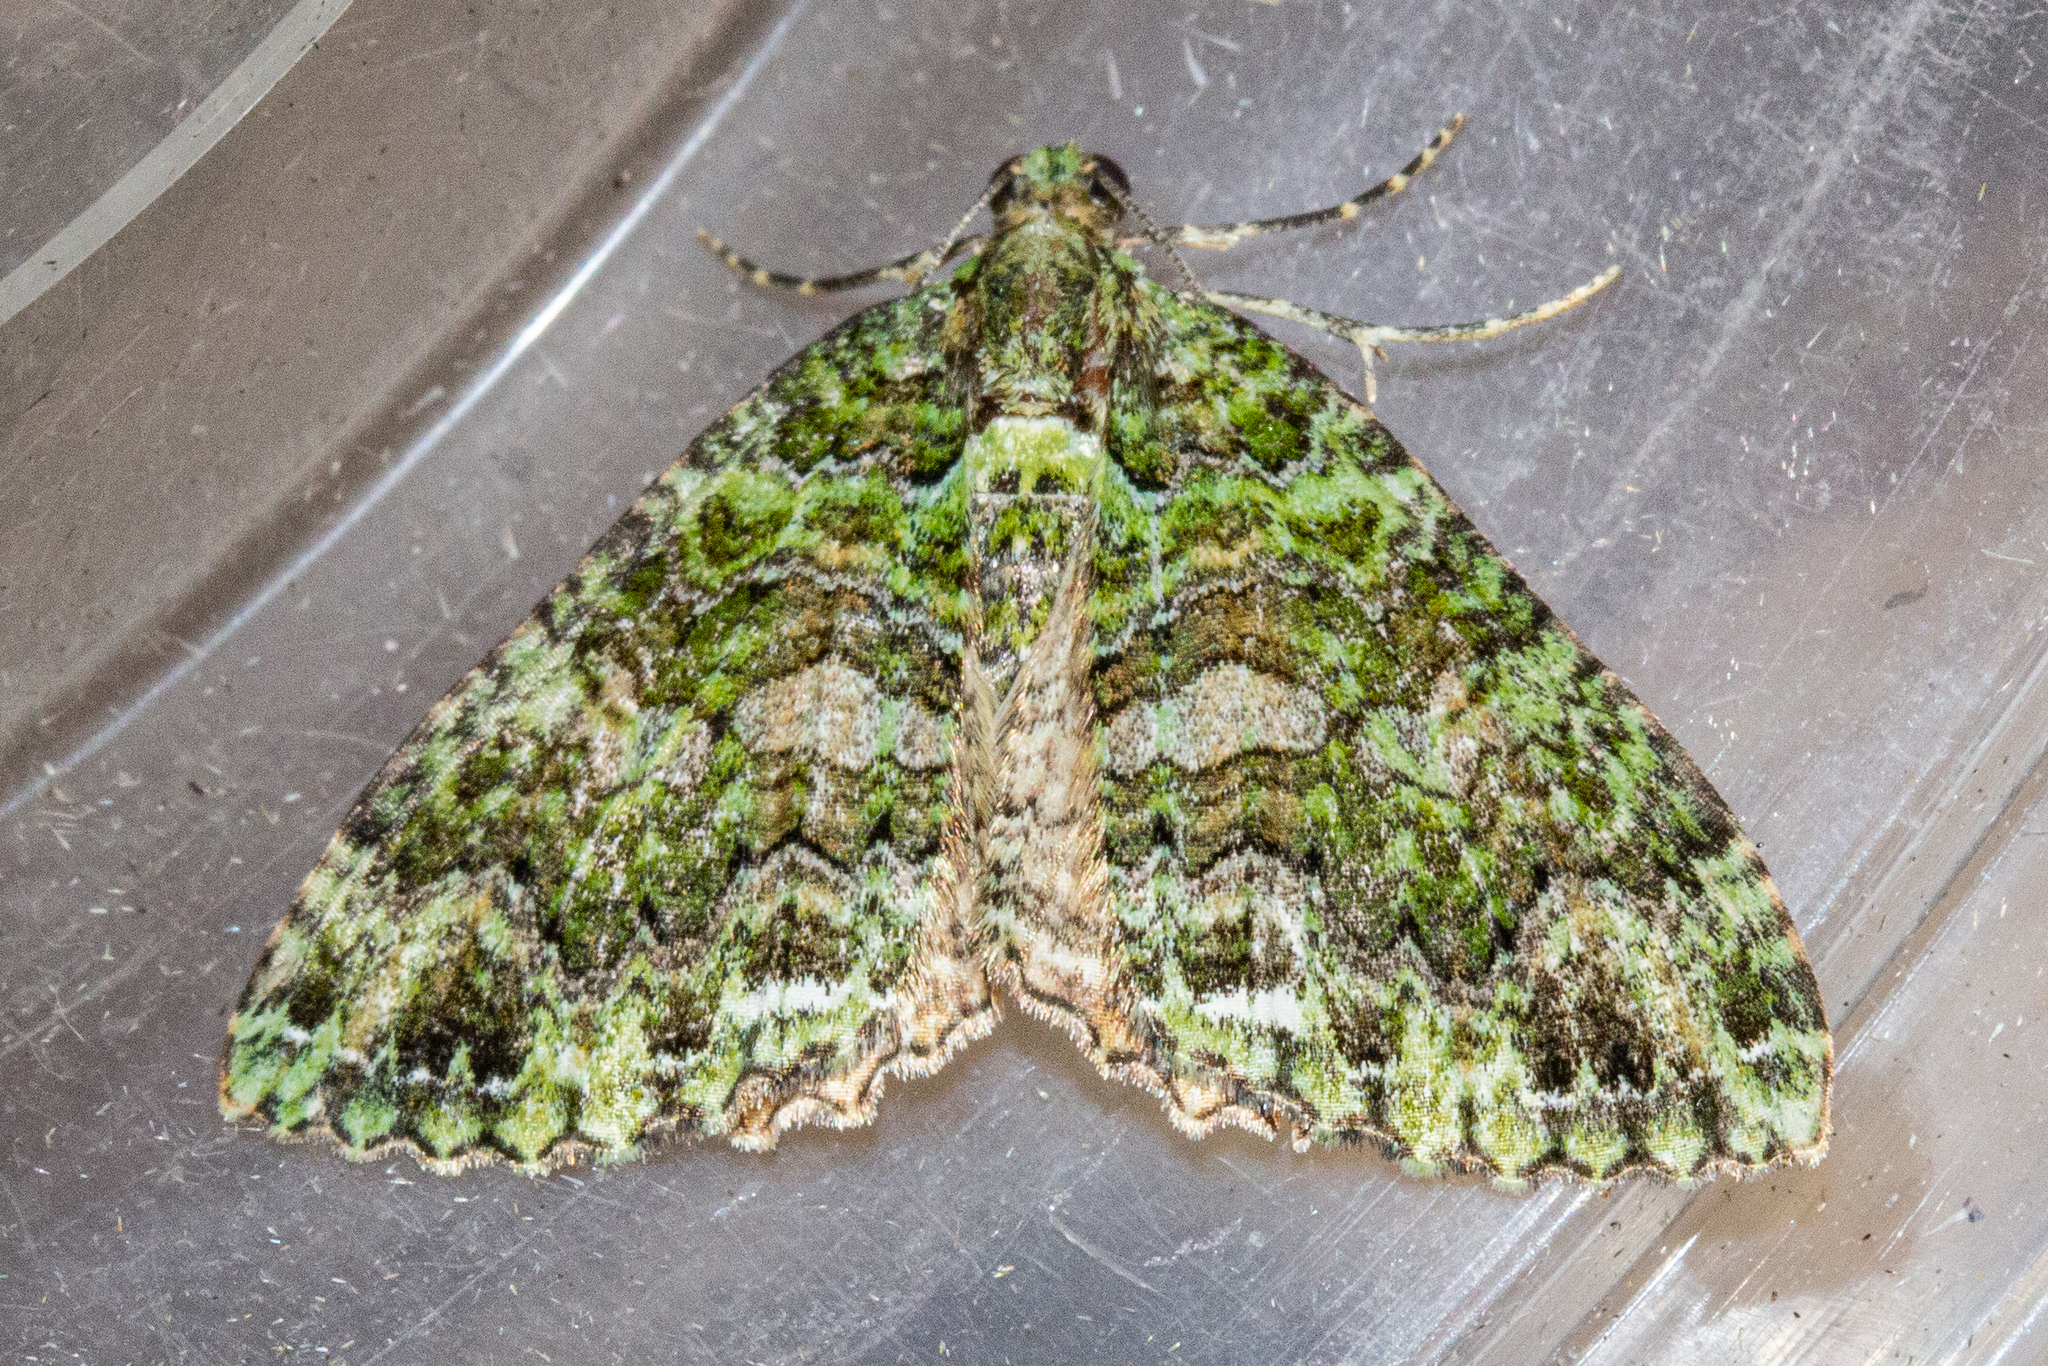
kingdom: Animalia
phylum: Arthropoda
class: Insecta
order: Lepidoptera
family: Geometridae
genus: Austrocidaria
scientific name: Austrocidaria similata
